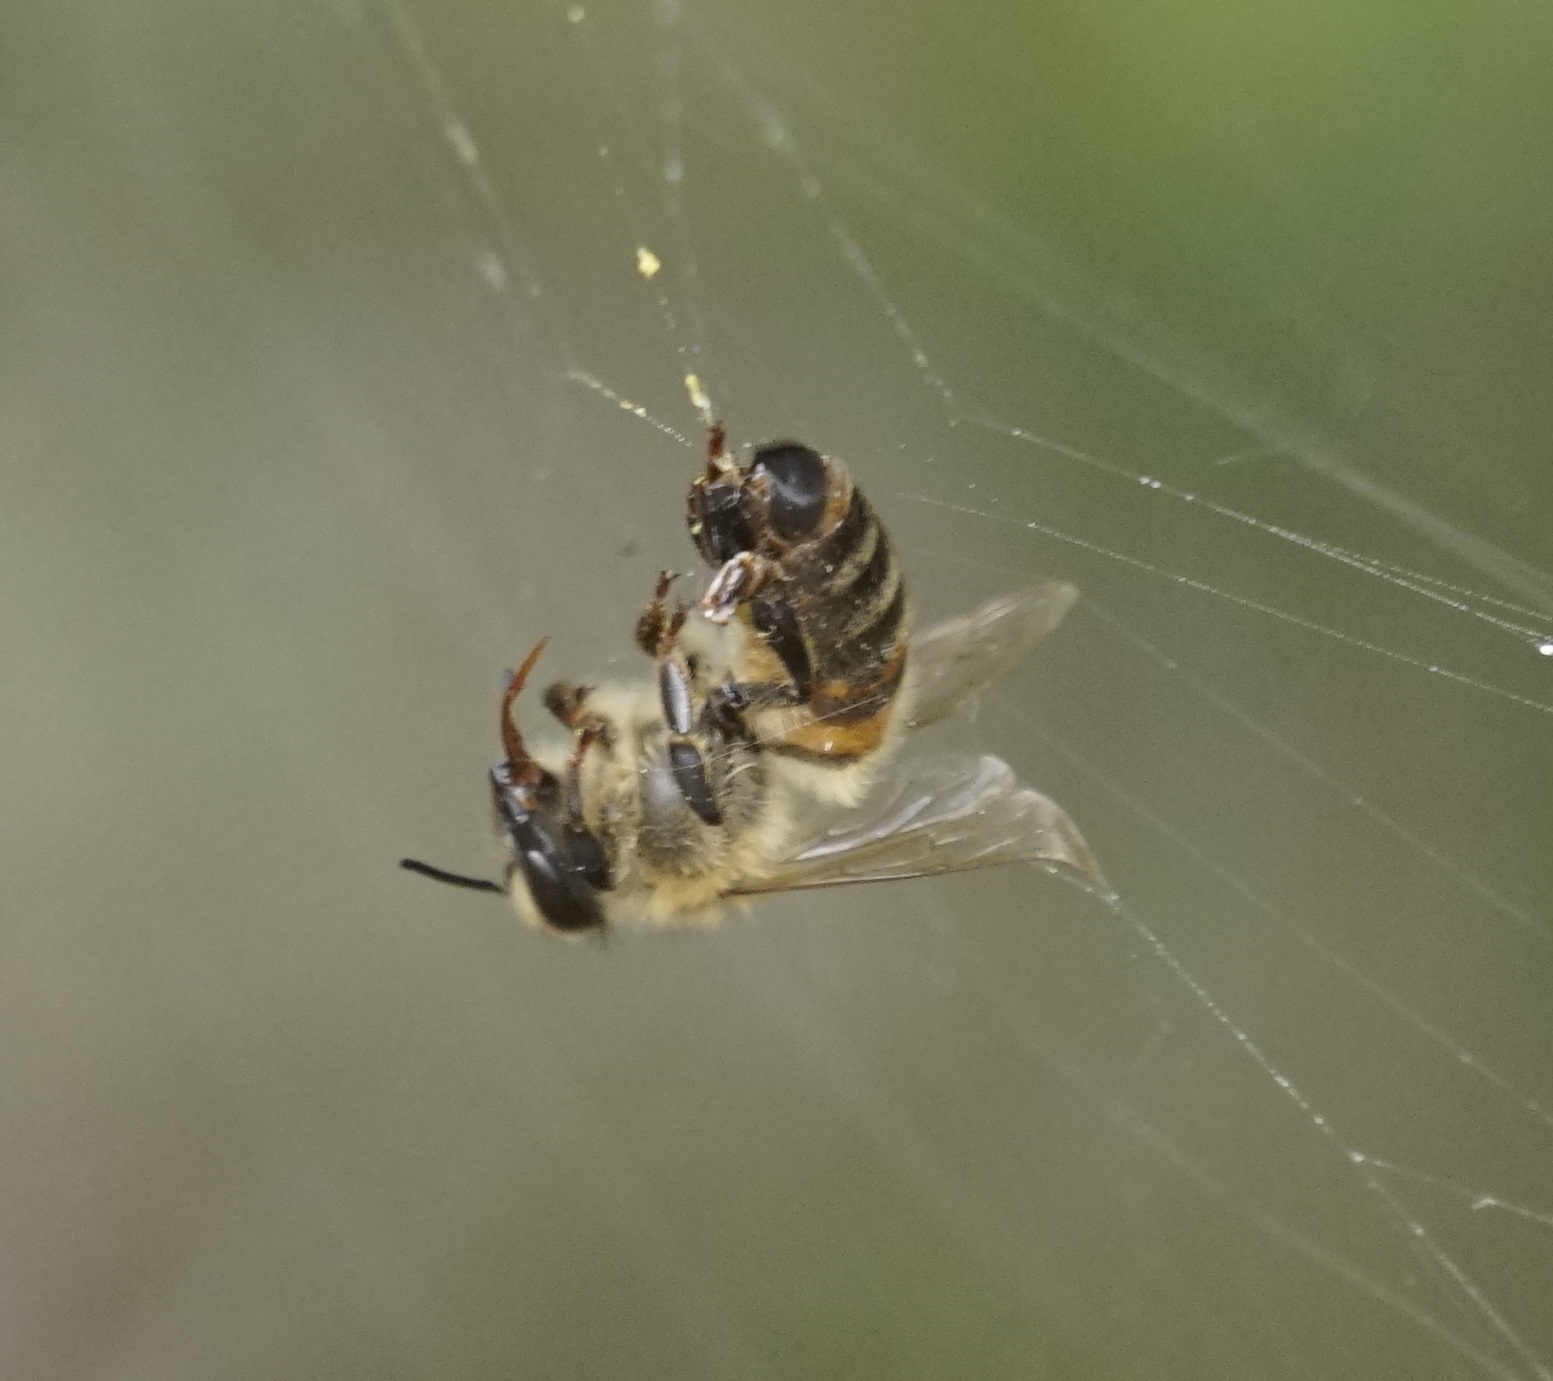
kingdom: Animalia
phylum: Arthropoda
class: Insecta
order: Hymenoptera
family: Apidae
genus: Apis
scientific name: Apis mellifera
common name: Honey bee
